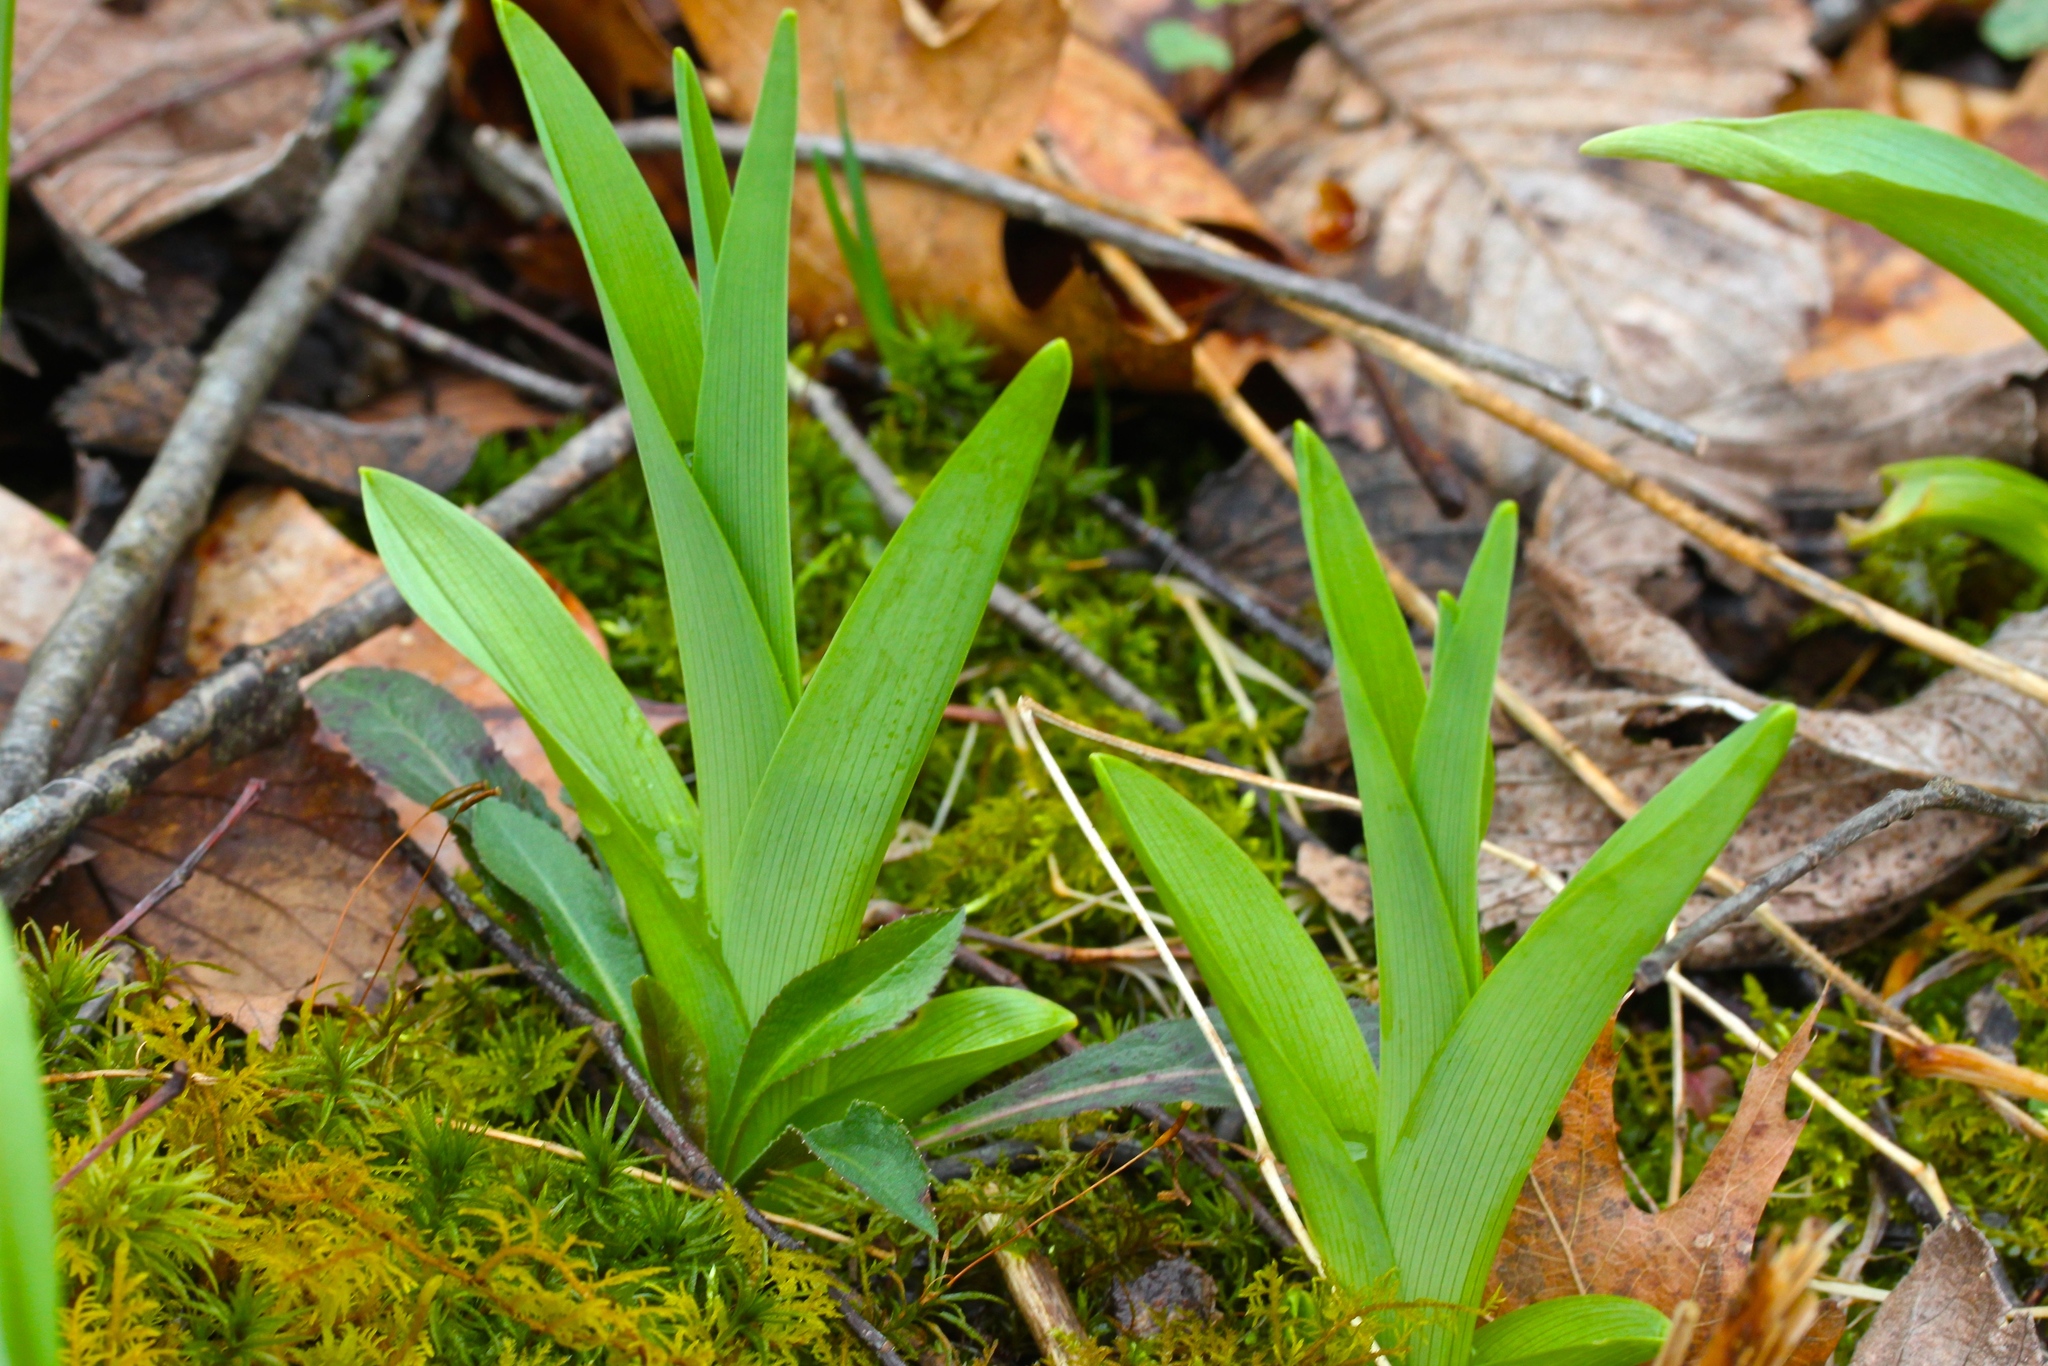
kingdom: Plantae
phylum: Tracheophyta
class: Liliopsida
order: Asparagales
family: Asphodelaceae
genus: Hemerocallis
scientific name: Hemerocallis fulva
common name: Orange day-lily
